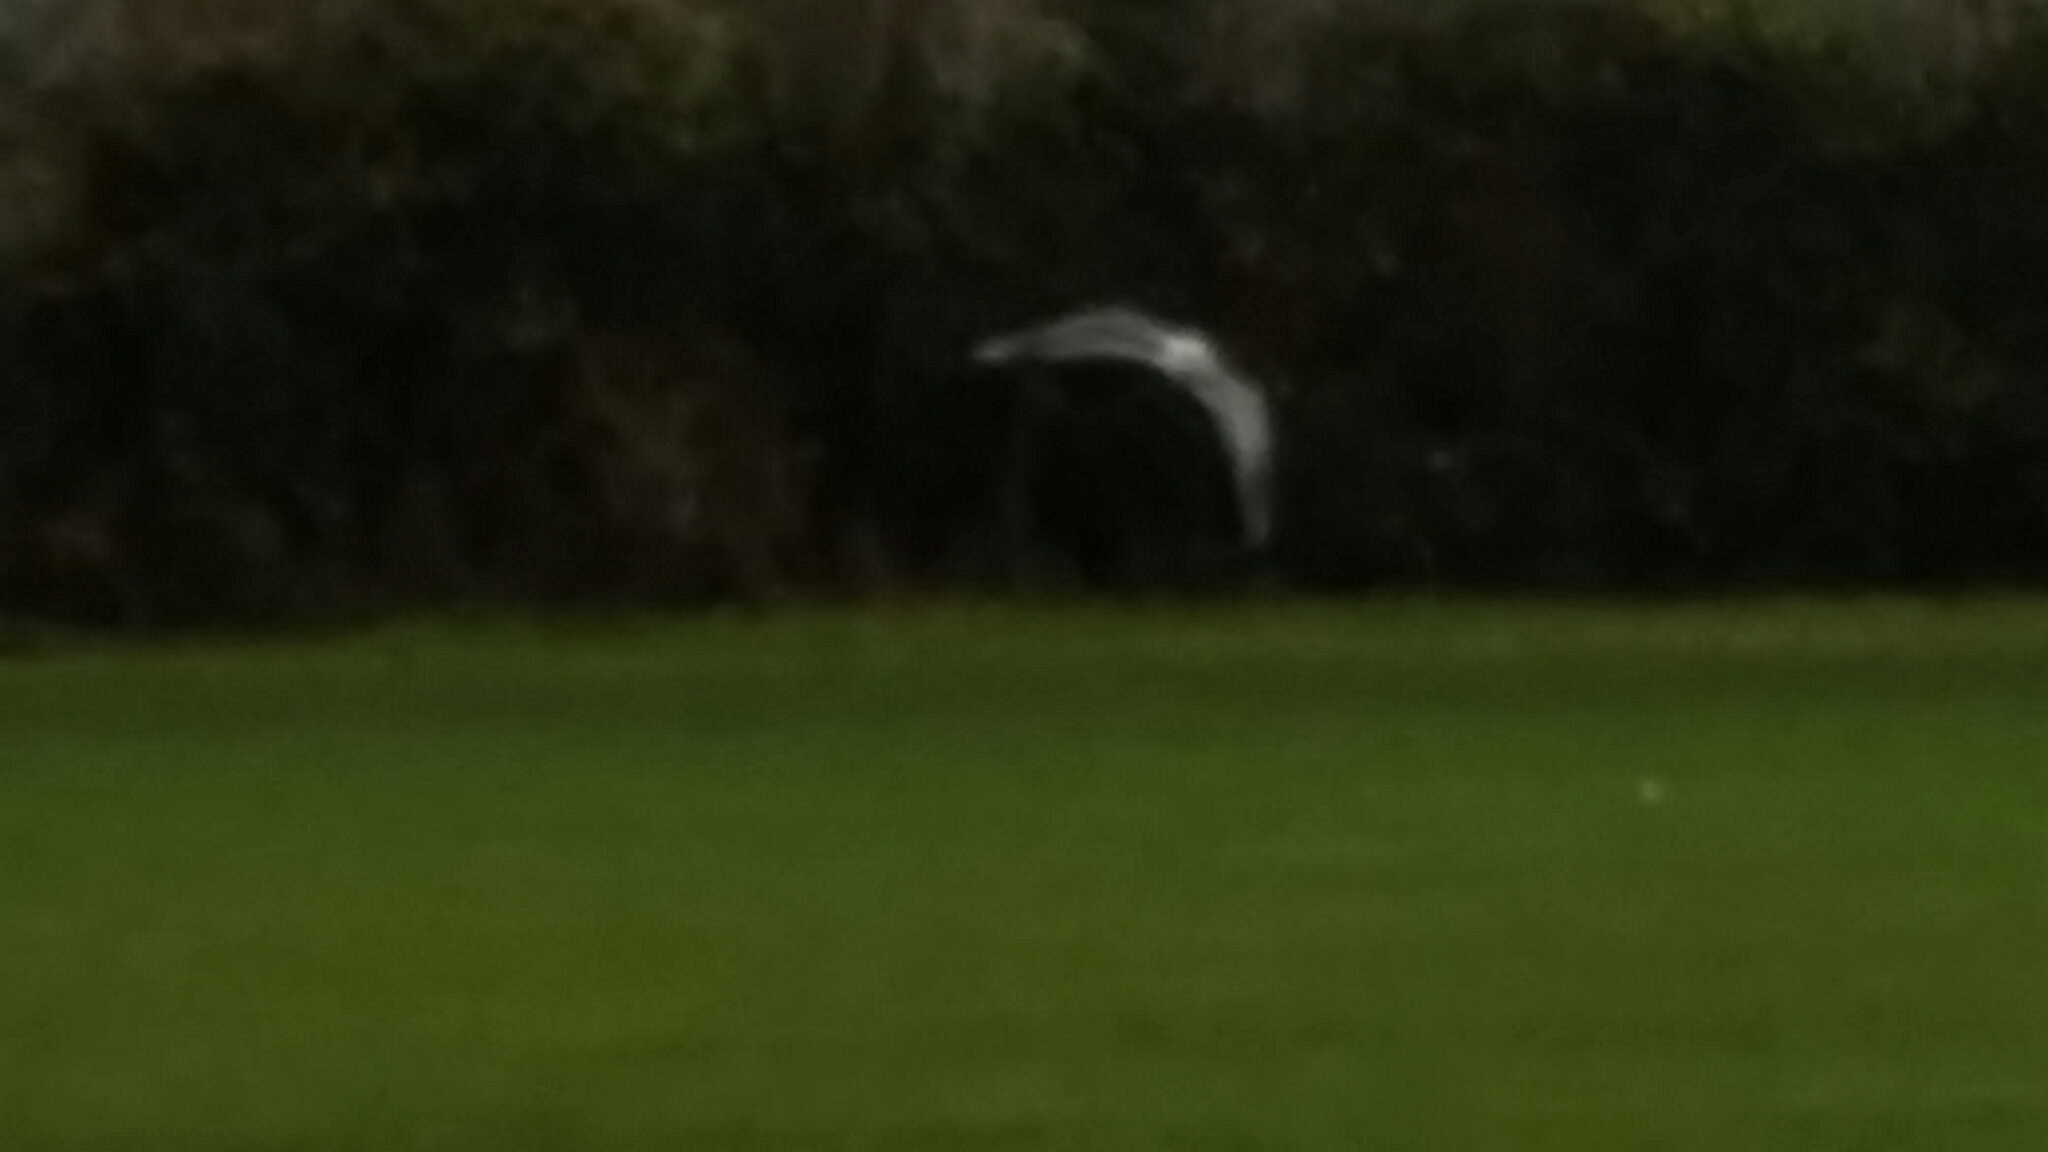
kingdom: Animalia
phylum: Chordata
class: Aves
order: Charadriiformes
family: Laridae
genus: Chroicocephalus
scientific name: Chroicocephalus ridibundus
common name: Black-headed gull
